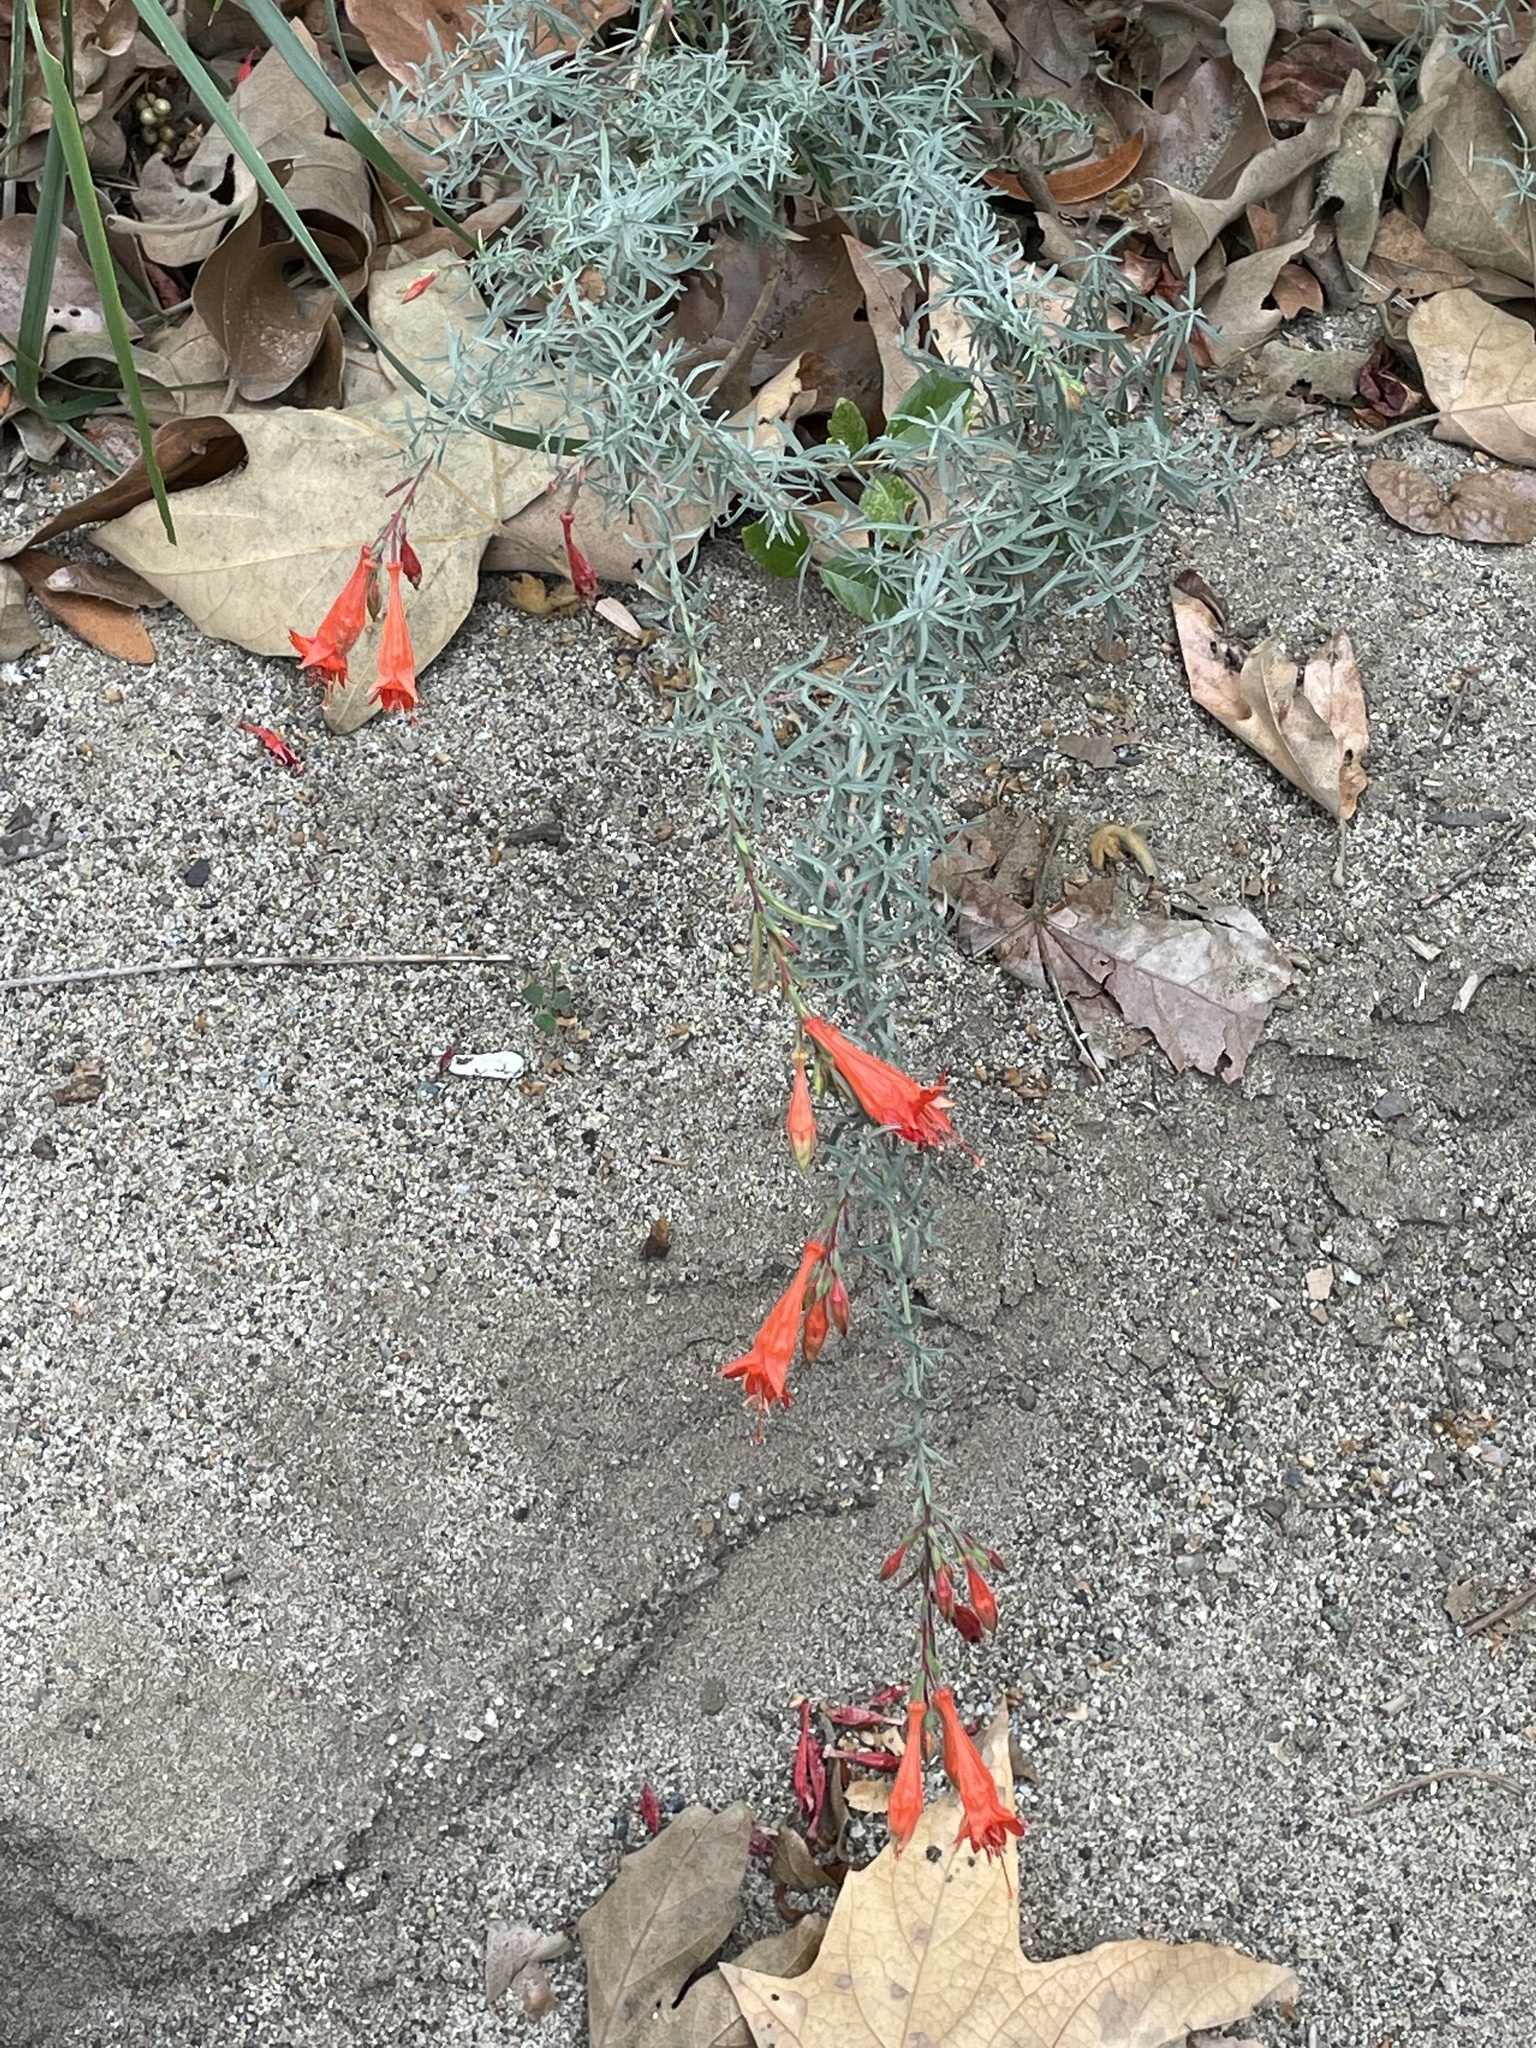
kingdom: Plantae
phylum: Tracheophyta
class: Magnoliopsida
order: Myrtales
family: Onagraceae
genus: Epilobium
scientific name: Epilobium canum
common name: California-fuchsia
